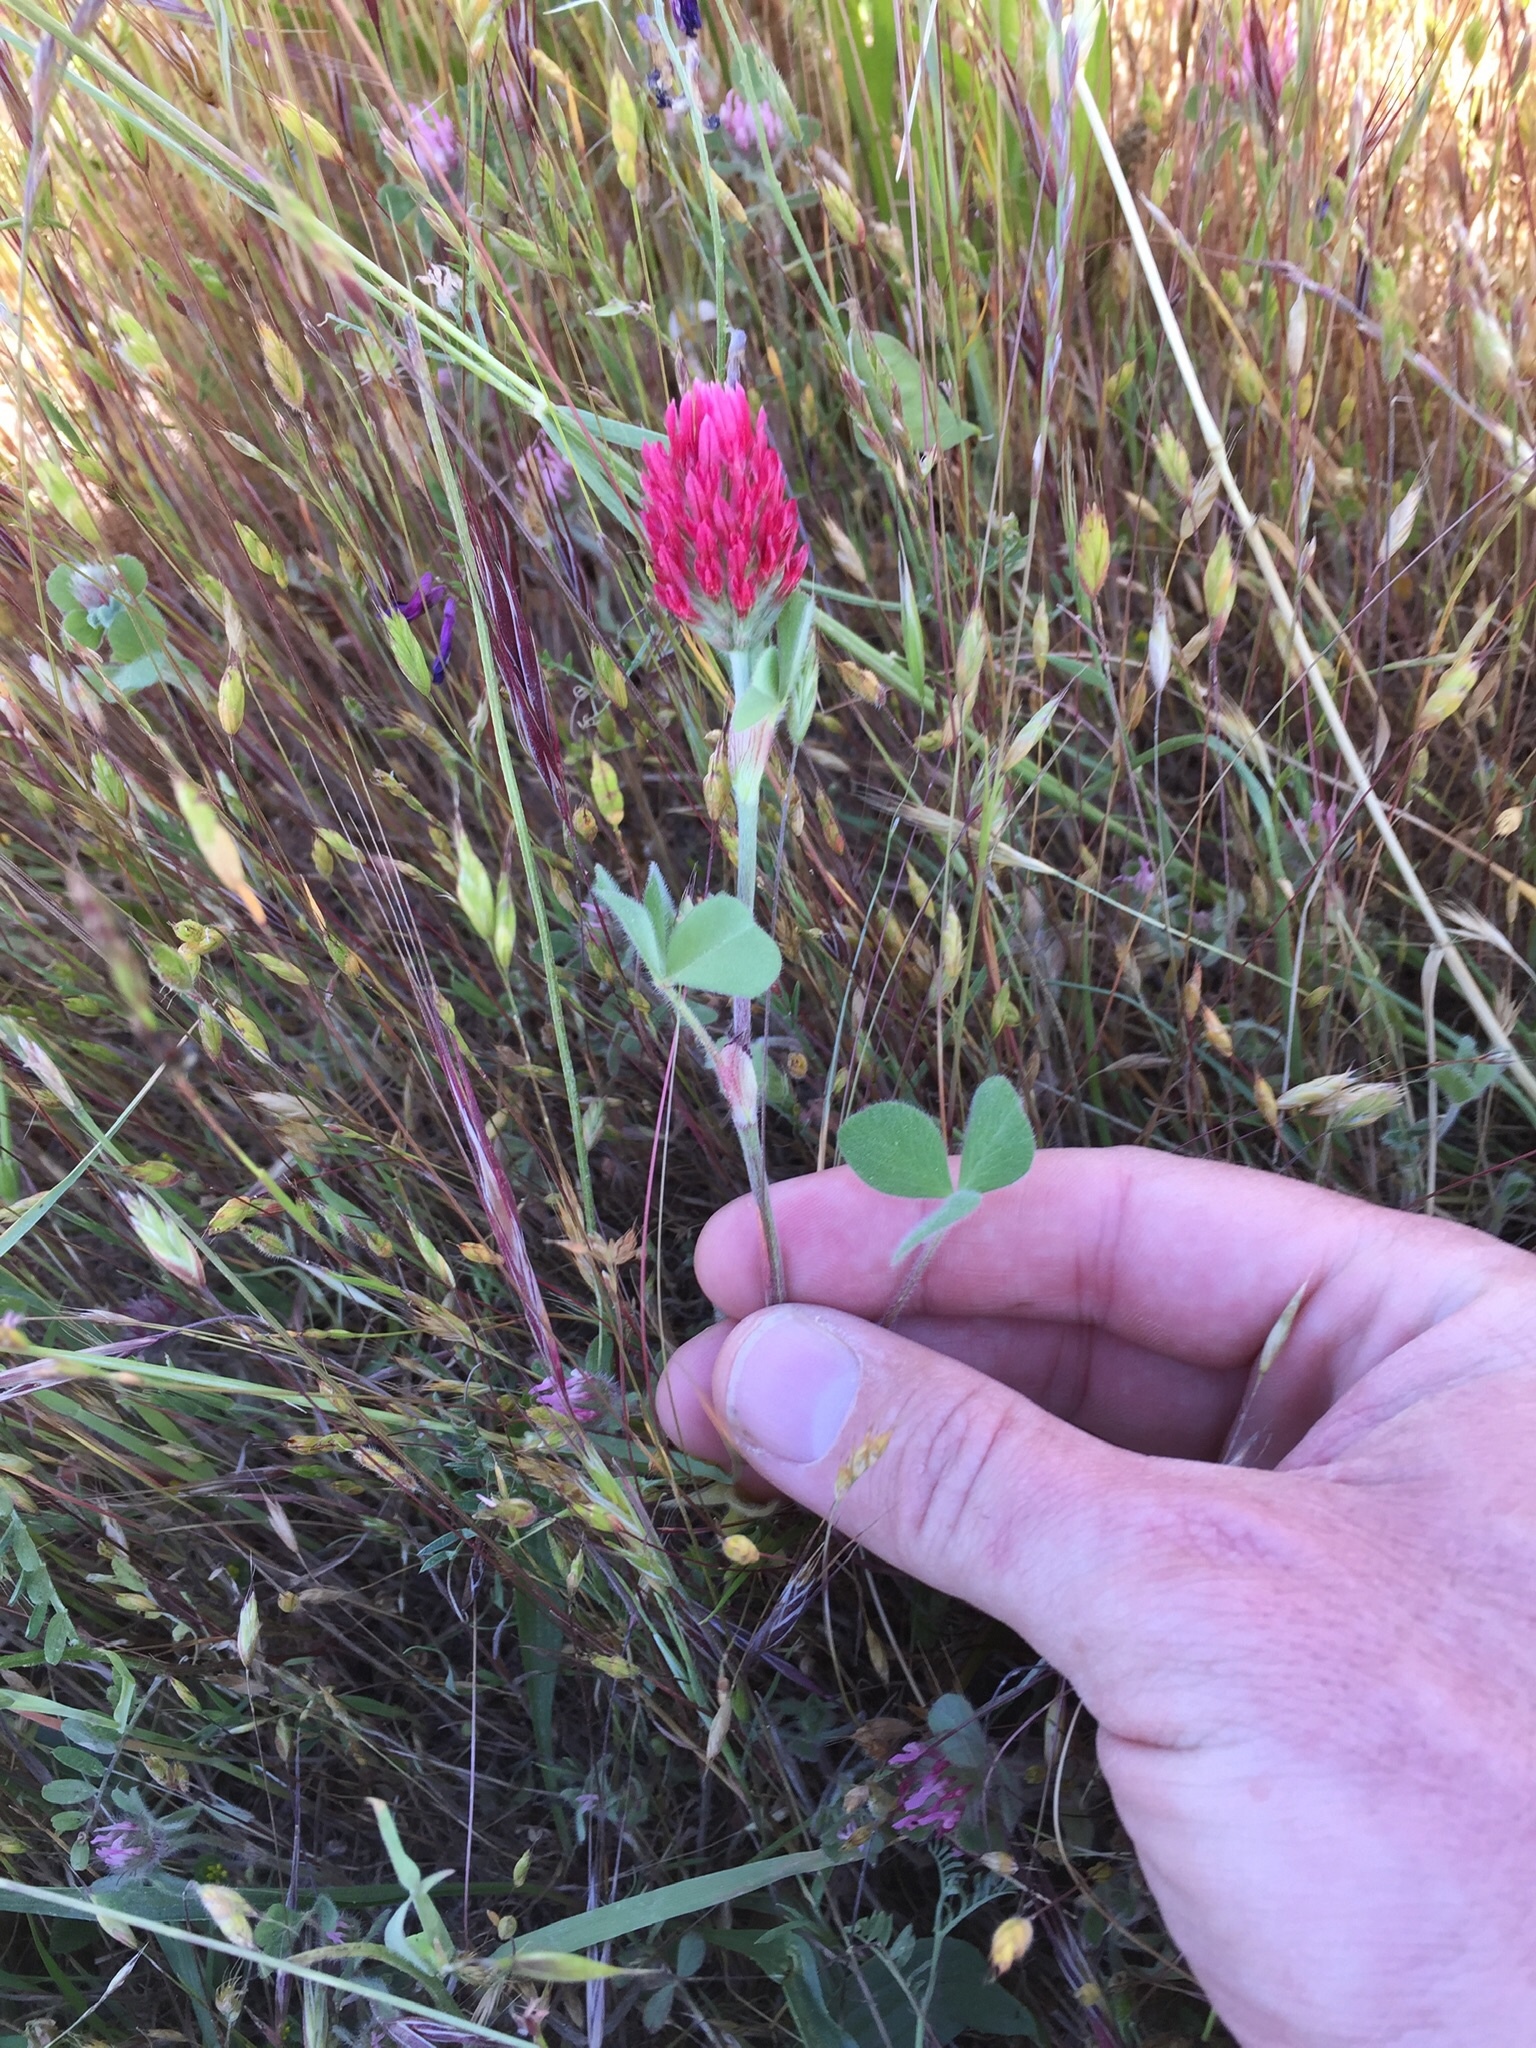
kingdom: Plantae
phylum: Tracheophyta
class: Magnoliopsida
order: Fabales
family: Fabaceae
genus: Trifolium
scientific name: Trifolium incarnatum
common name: Crimson clover
